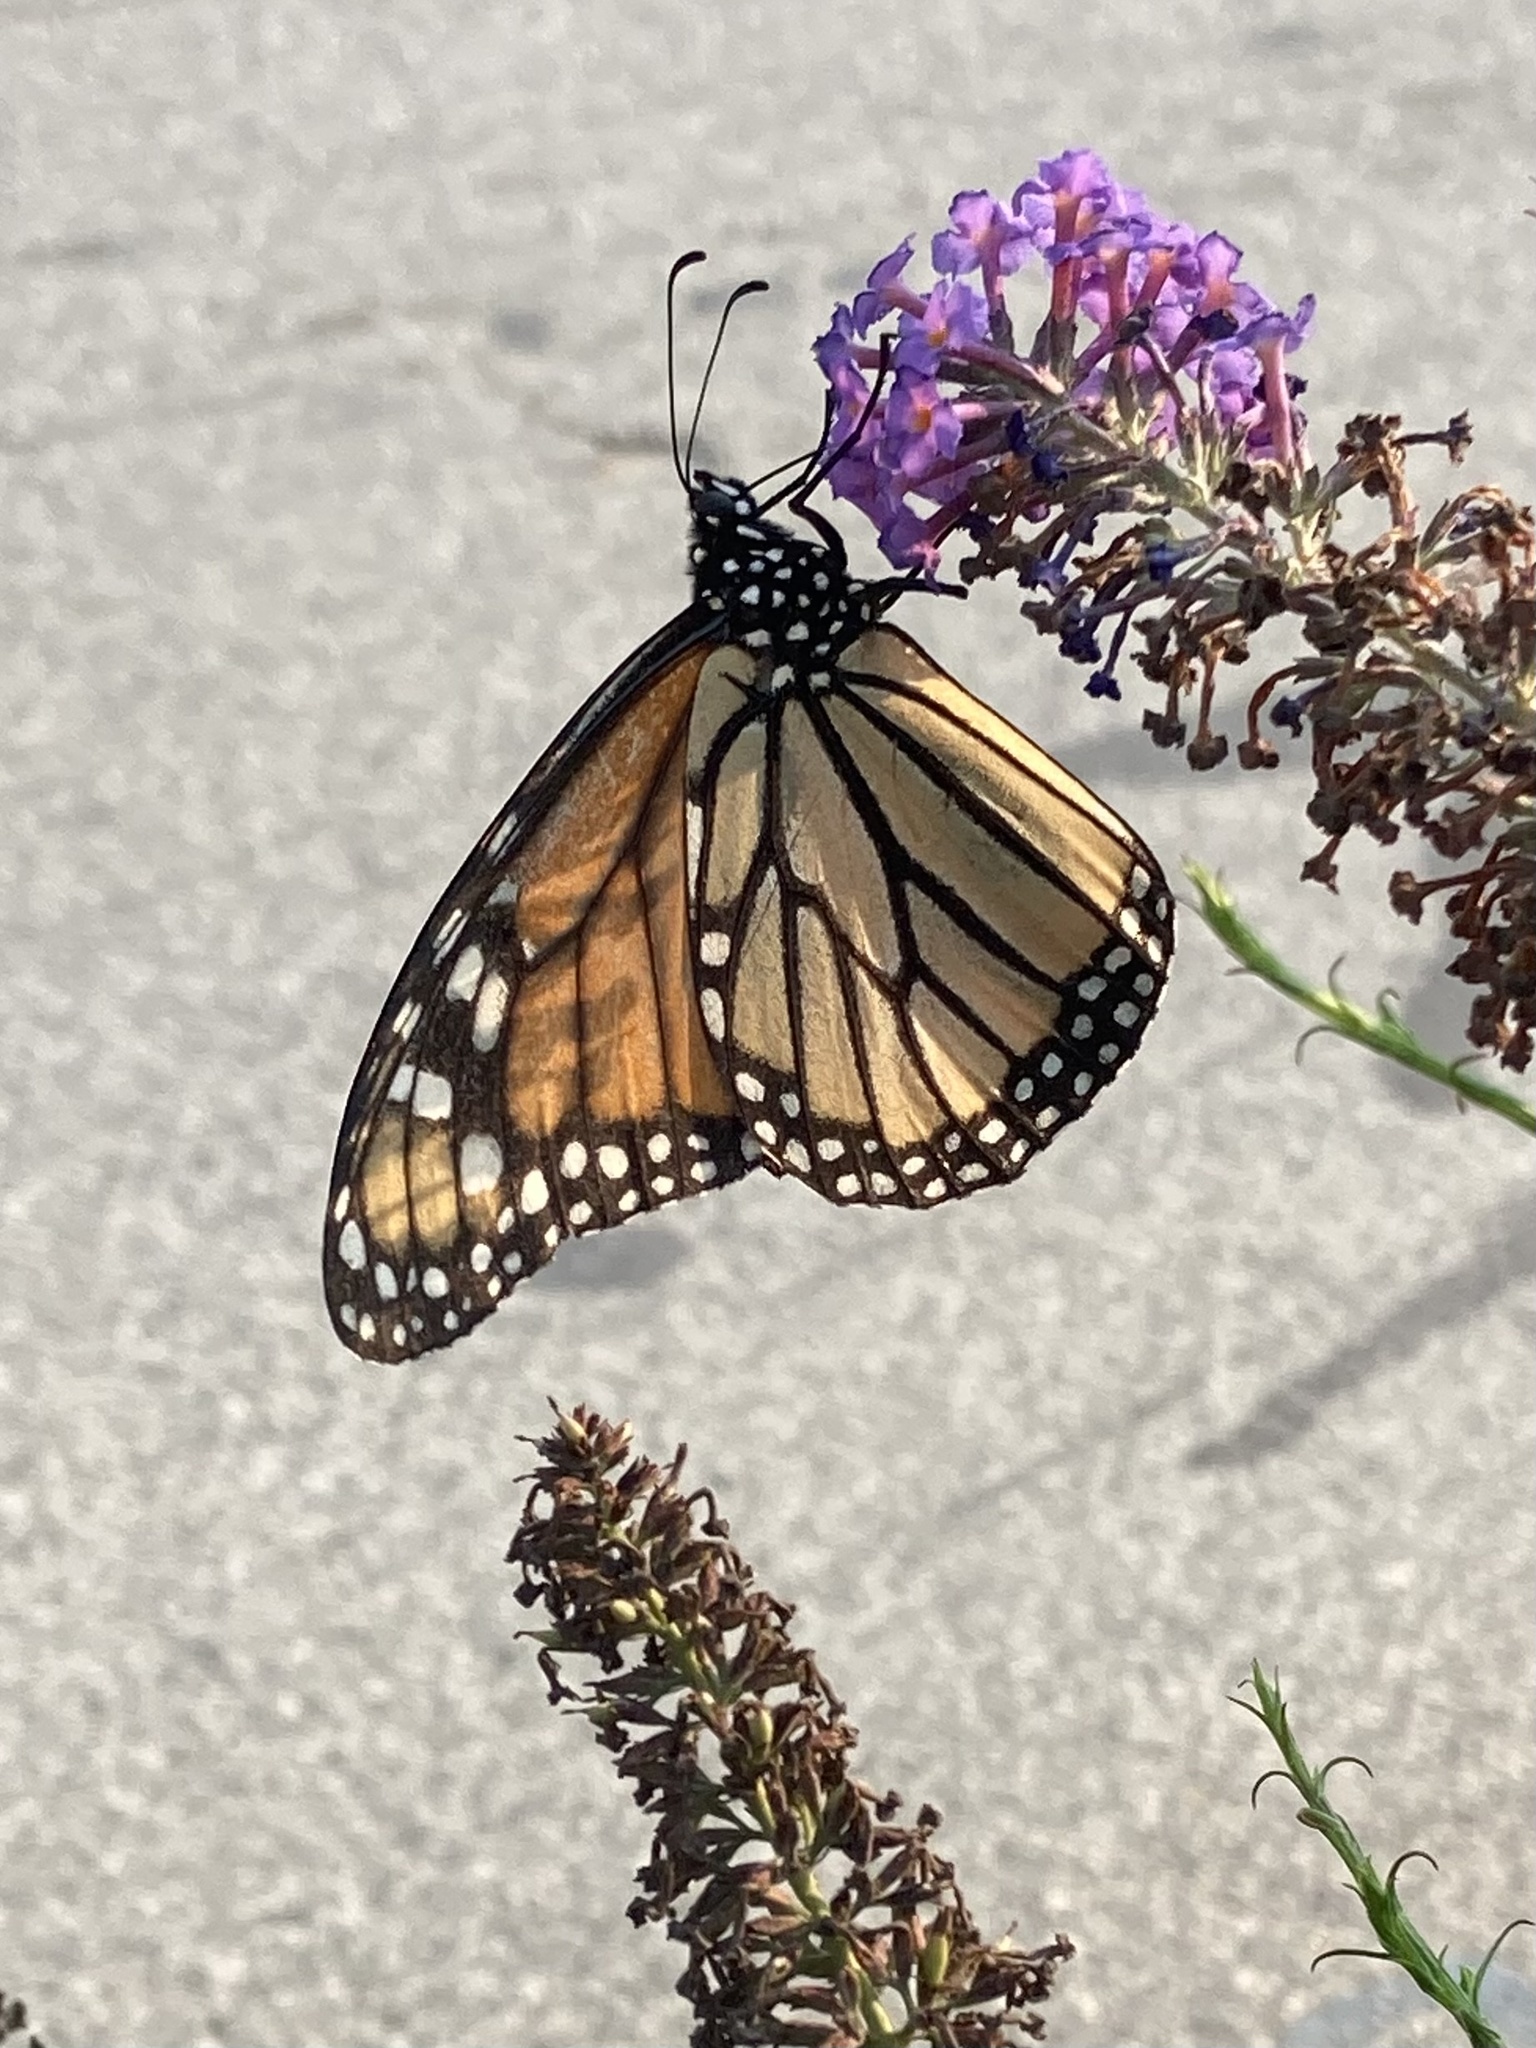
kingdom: Animalia
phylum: Arthropoda
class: Insecta
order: Lepidoptera
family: Nymphalidae
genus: Danaus
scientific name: Danaus plexippus
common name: Monarch
